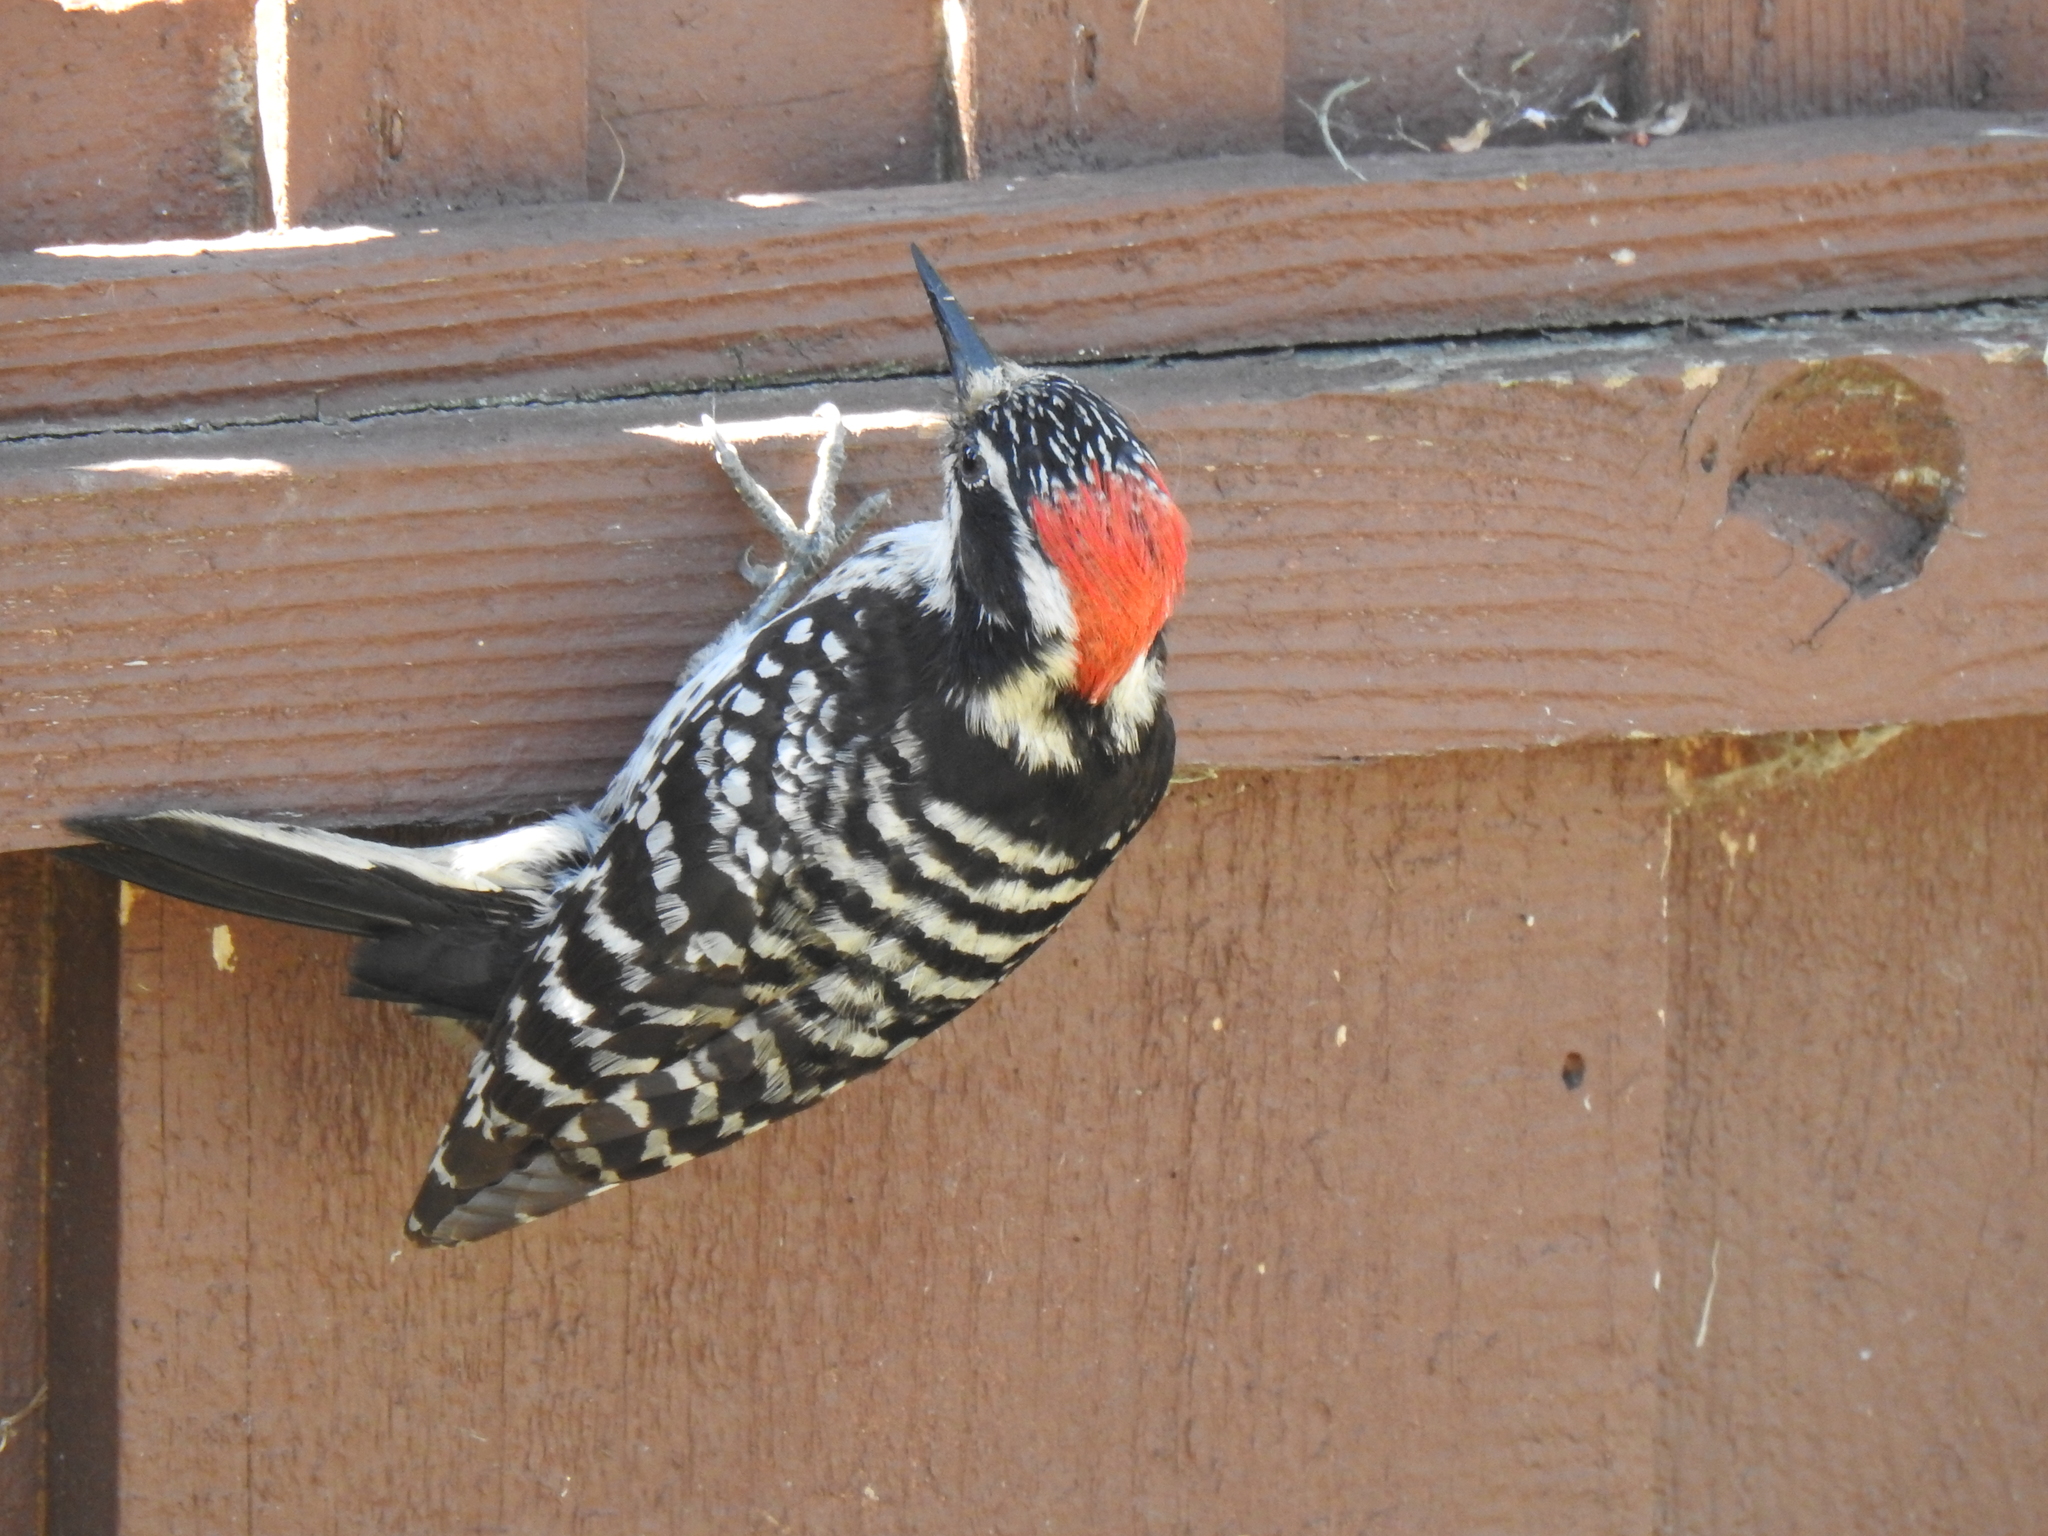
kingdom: Animalia
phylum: Chordata
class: Aves
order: Piciformes
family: Picidae
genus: Dryobates
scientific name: Dryobates nuttallii
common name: Nuttall's woodpecker
